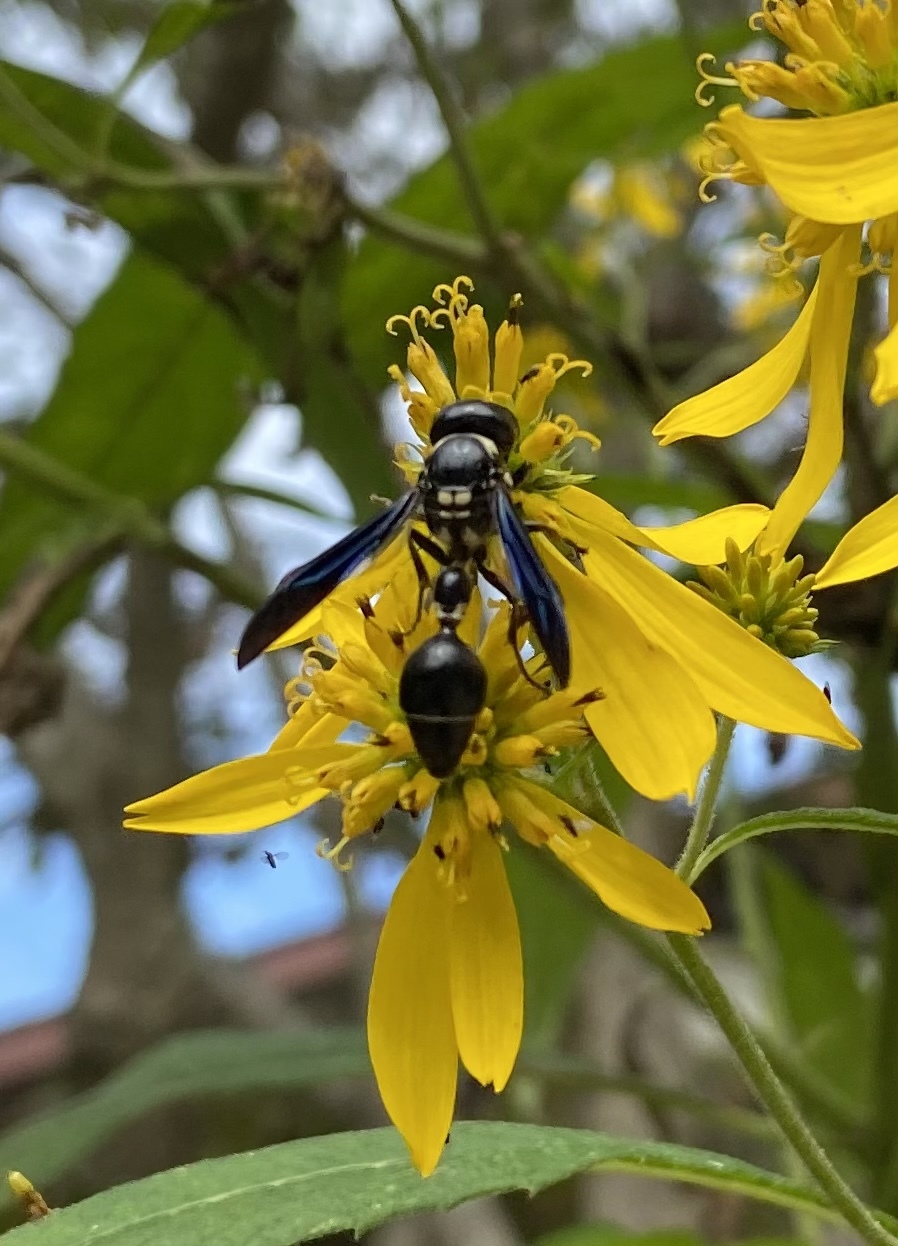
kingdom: Animalia
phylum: Arthropoda
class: Insecta
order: Hymenoptera
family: Eumenidae
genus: Zethus
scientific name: Zethus spinipes
